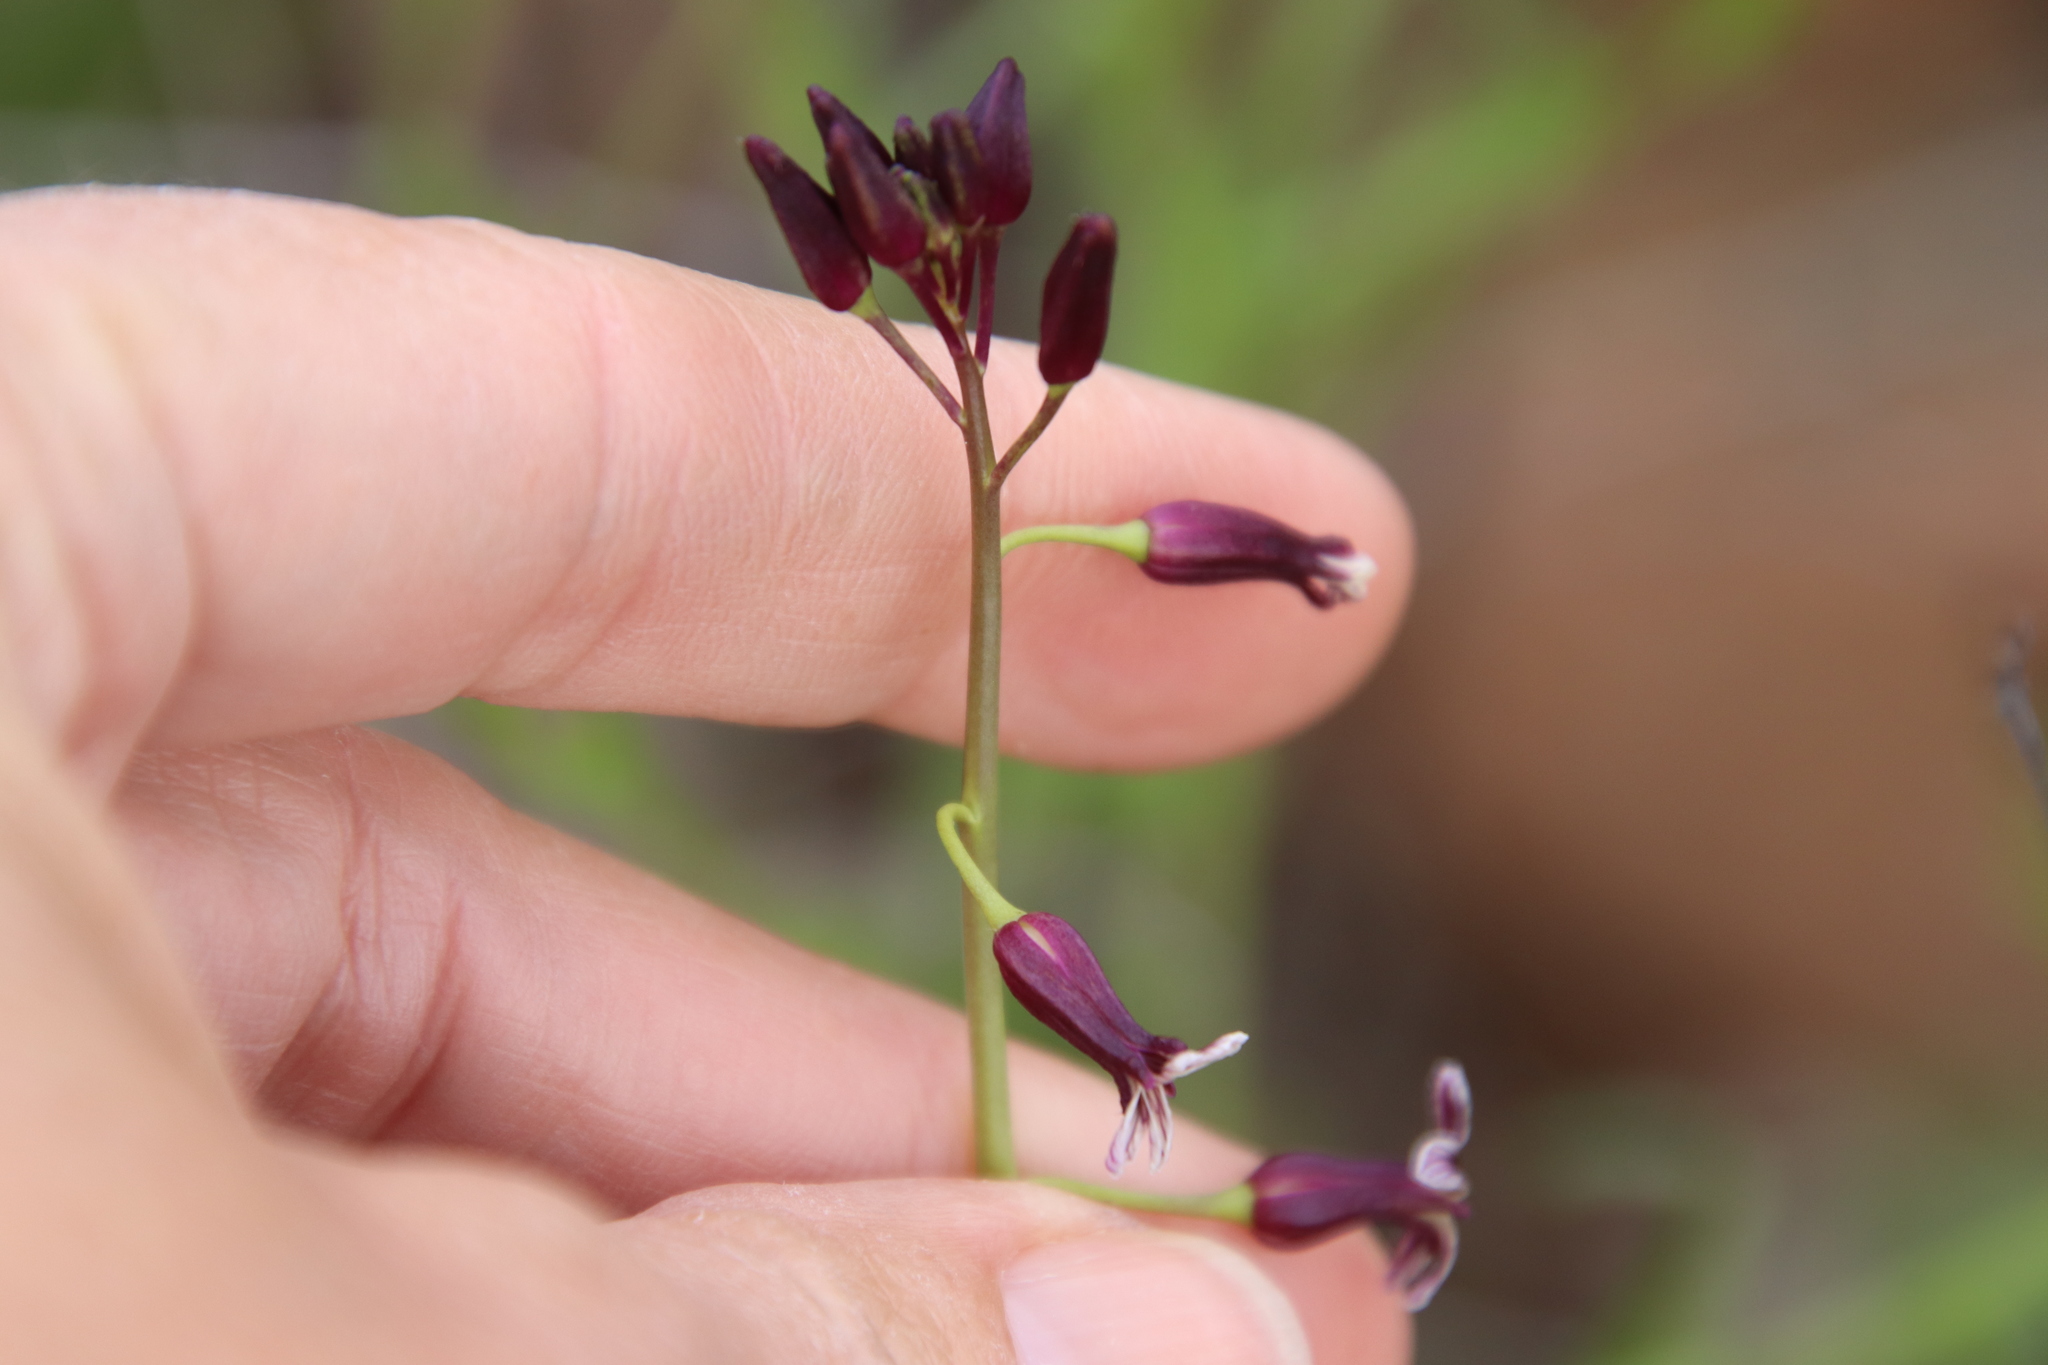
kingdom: Plantae
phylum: Tracheophyta
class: Magnoliopsida
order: Brassicales
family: Brassicaceae
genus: Streptanthus
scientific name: Streptanthus heterophyllus
